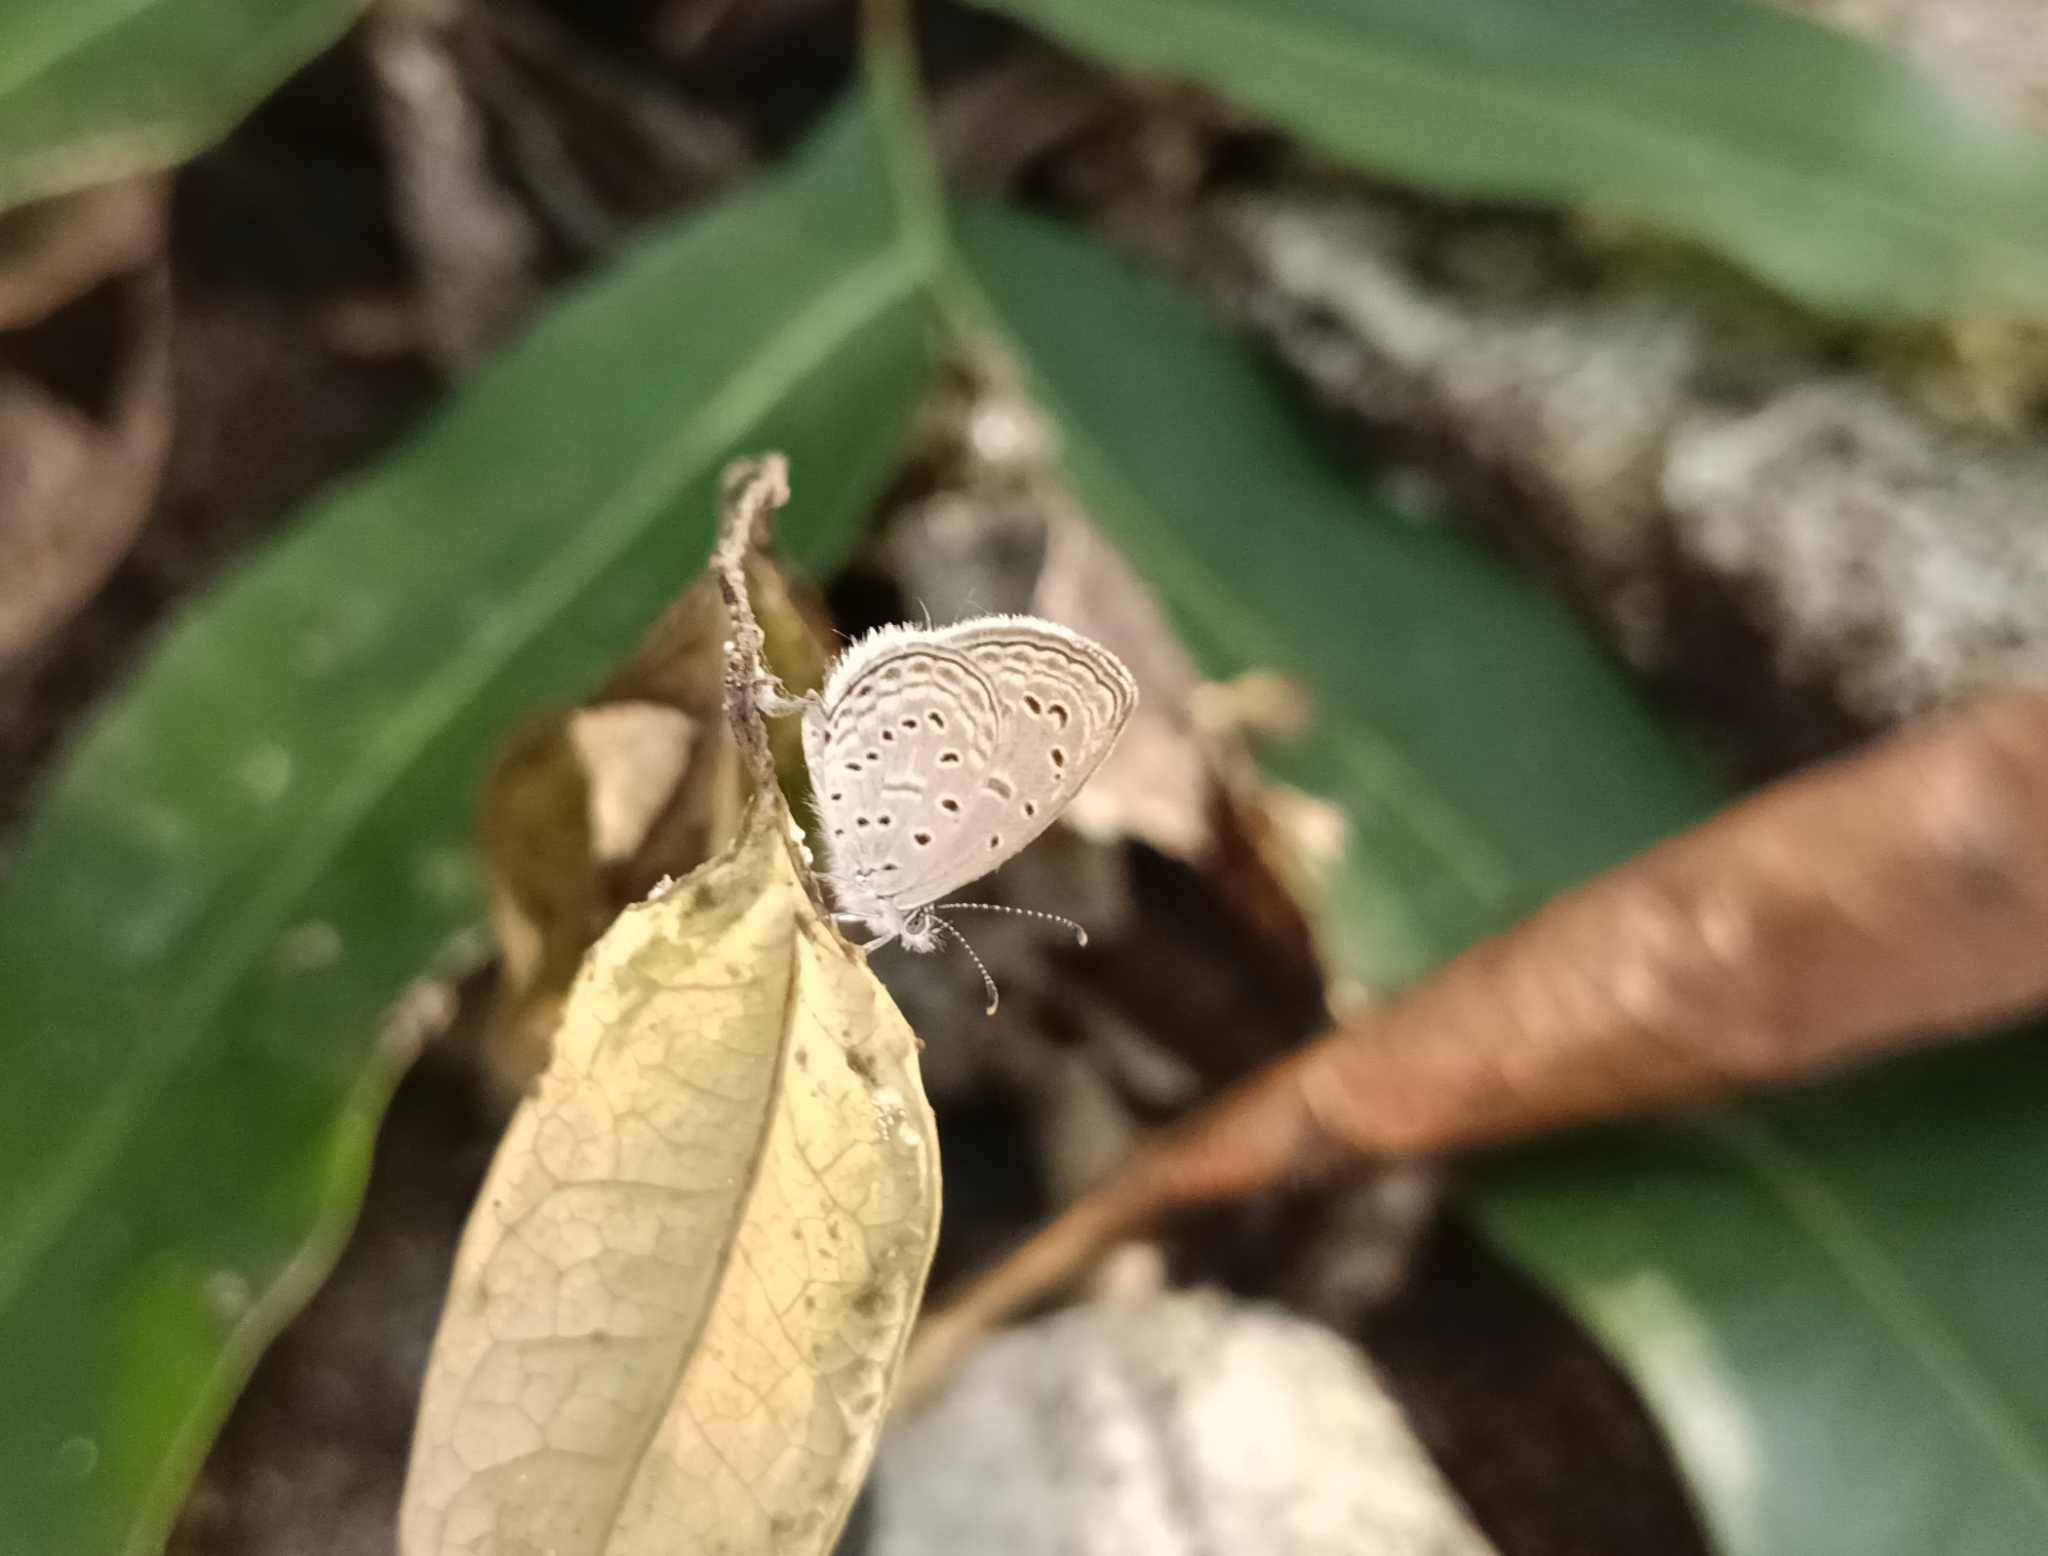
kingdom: Animalia
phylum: Arthropoda
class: Insecta
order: Lepidoptera
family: Lycaenidae
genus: Zizula
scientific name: Zizula hylax
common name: Gaika blue
